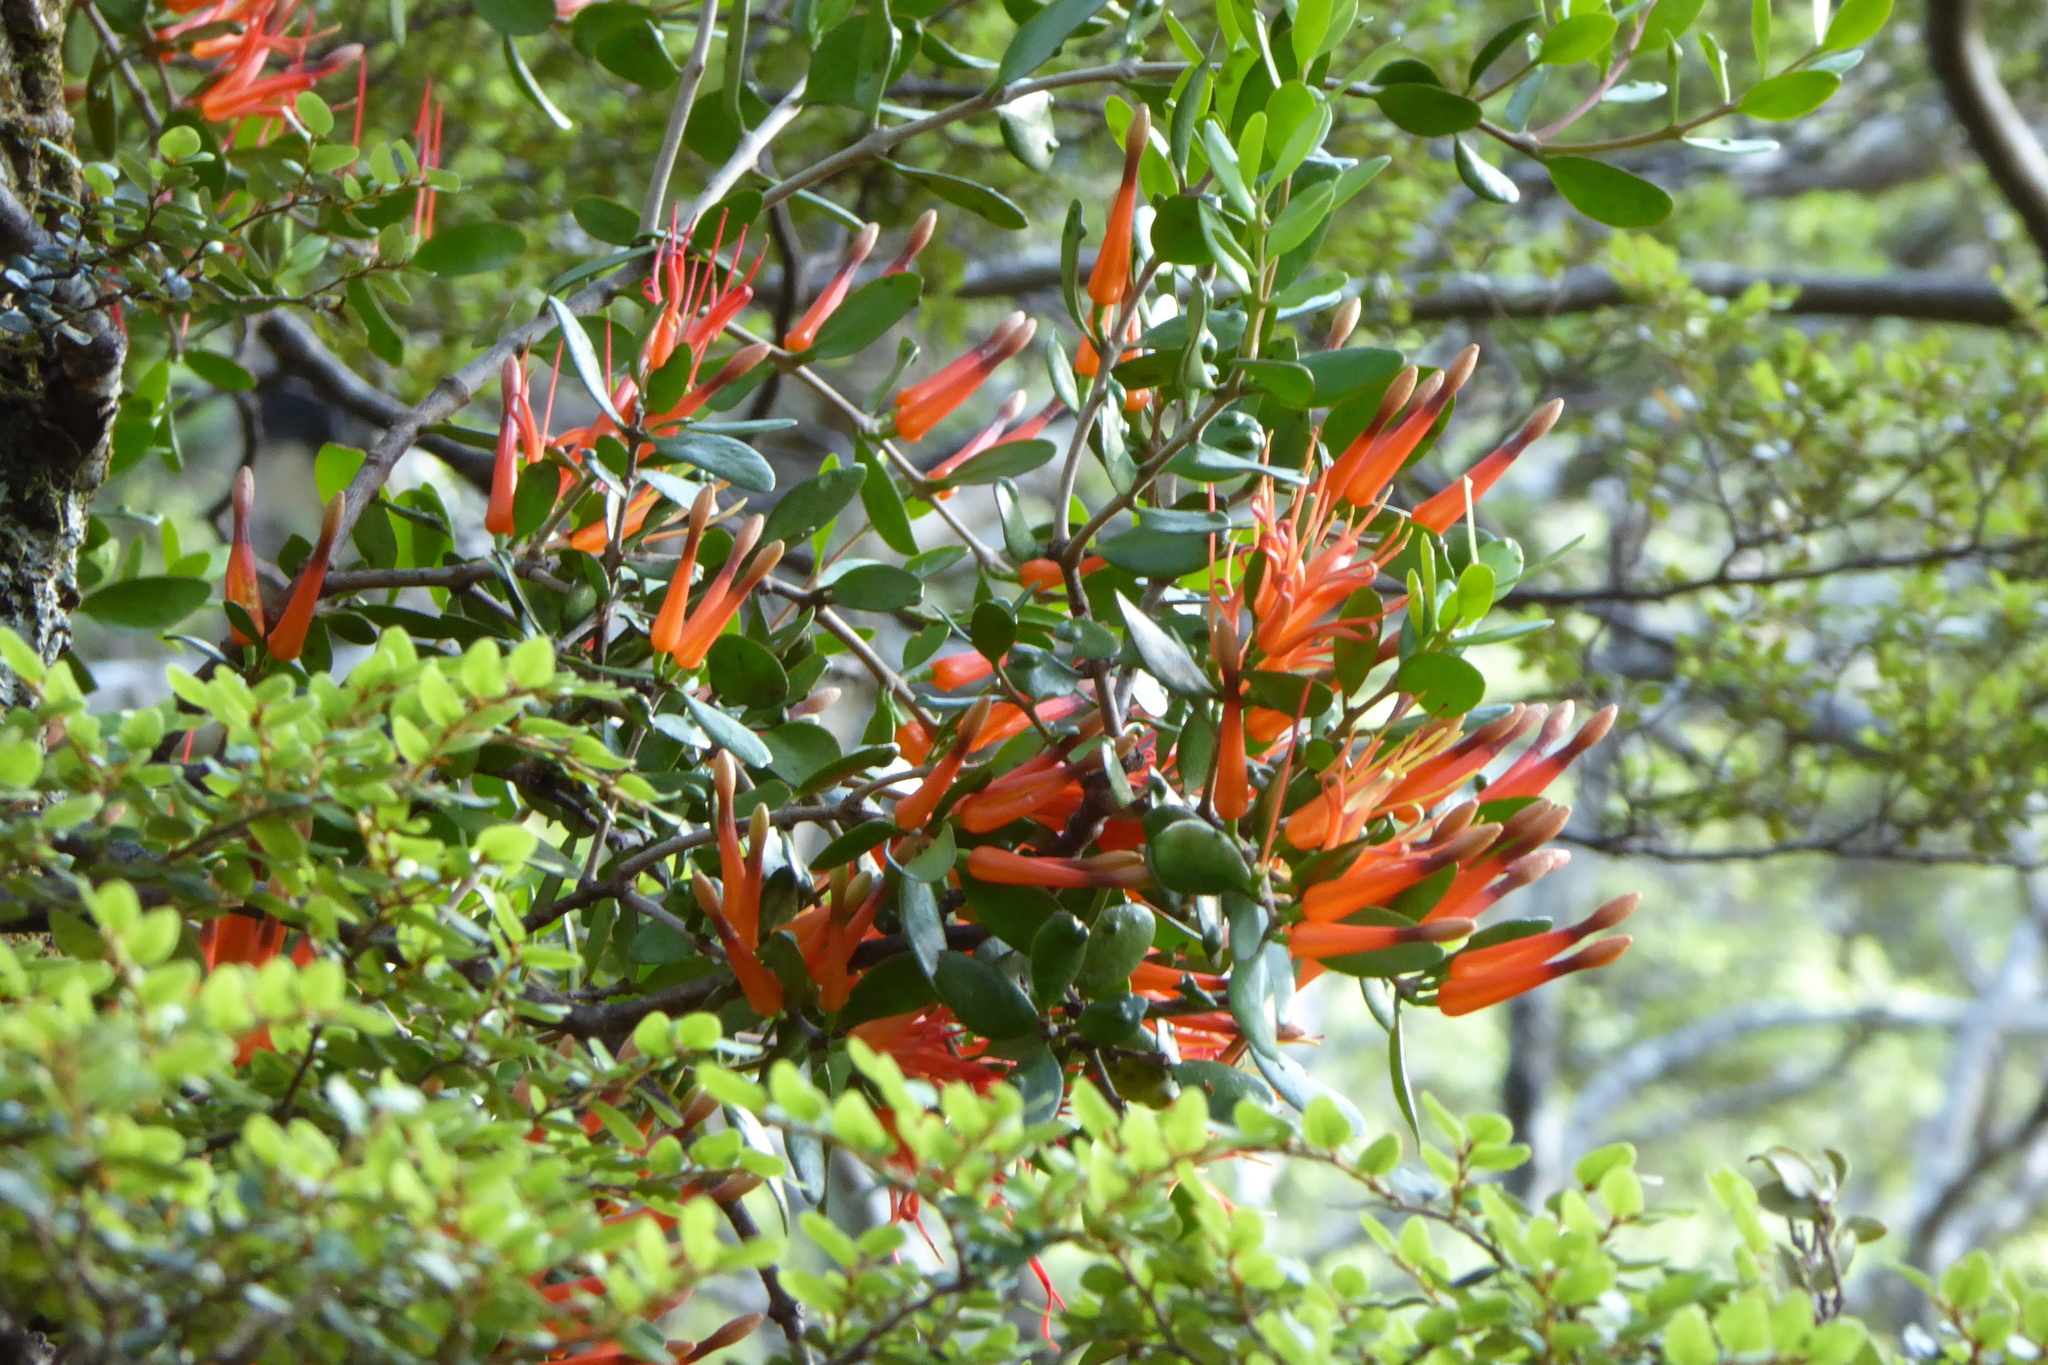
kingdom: Plantae
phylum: Tracheophyta
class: Magnoliopsida
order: Santalales
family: Loranthaceae
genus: Peraxilla
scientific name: Peraxilla tetrapetala
